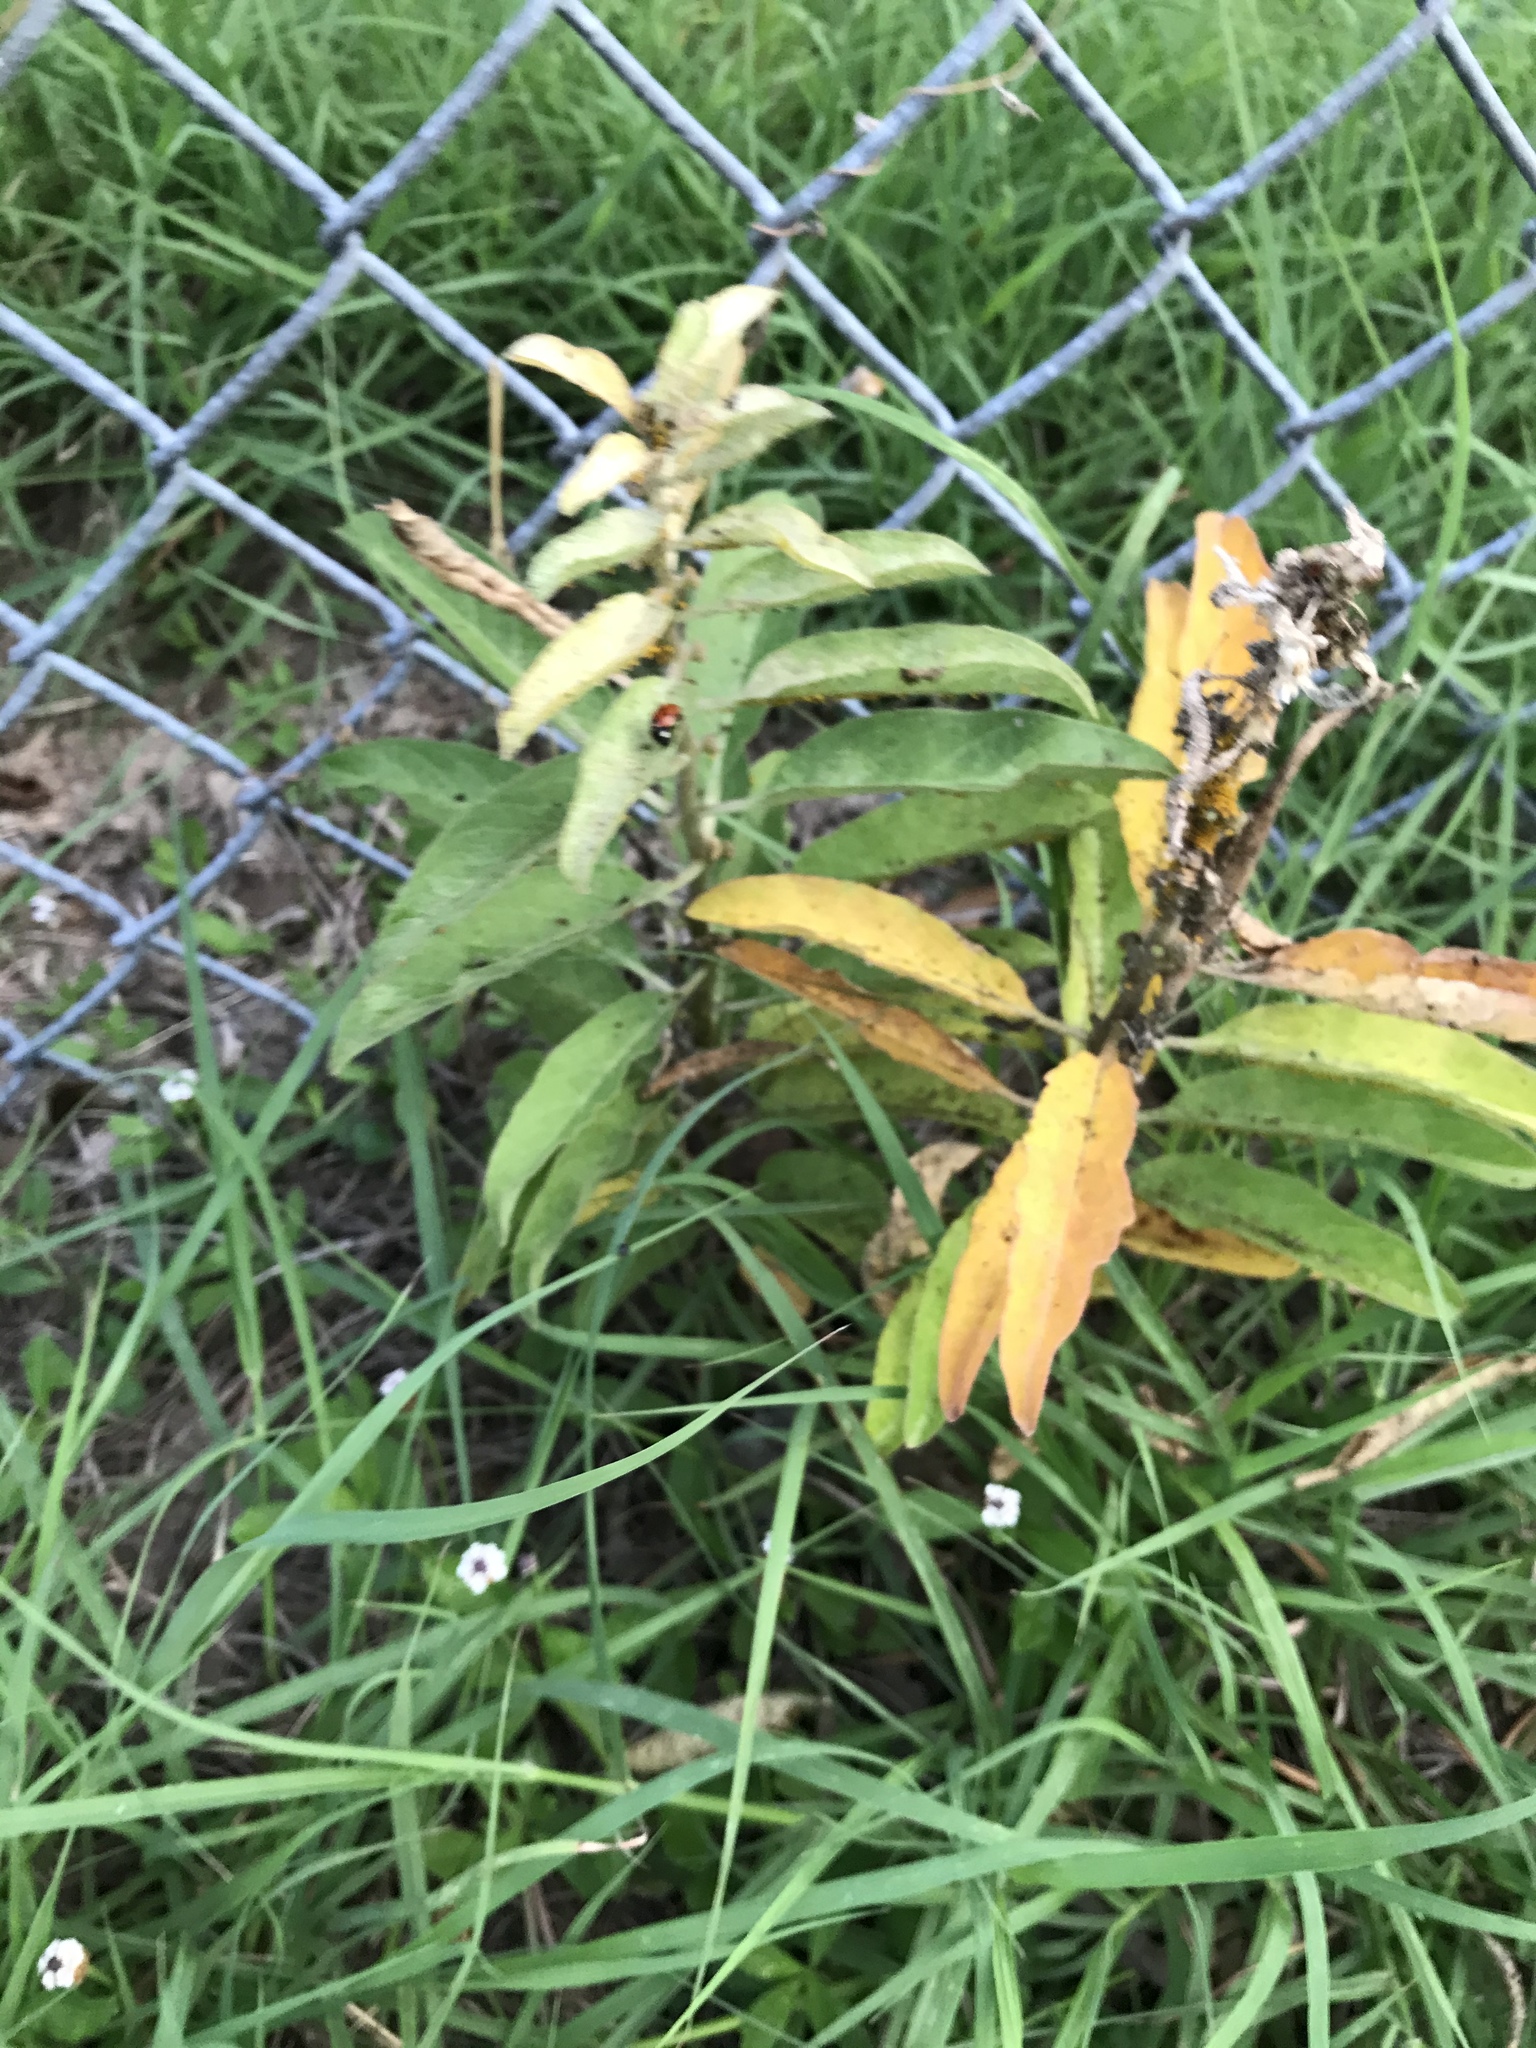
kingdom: Plantae
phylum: Tracheophyta
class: Magnoliopsida
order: Gentianales
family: Apocynaceae
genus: Asclepias
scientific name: Asclepias oenotheroides
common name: Zizotes milkweed
